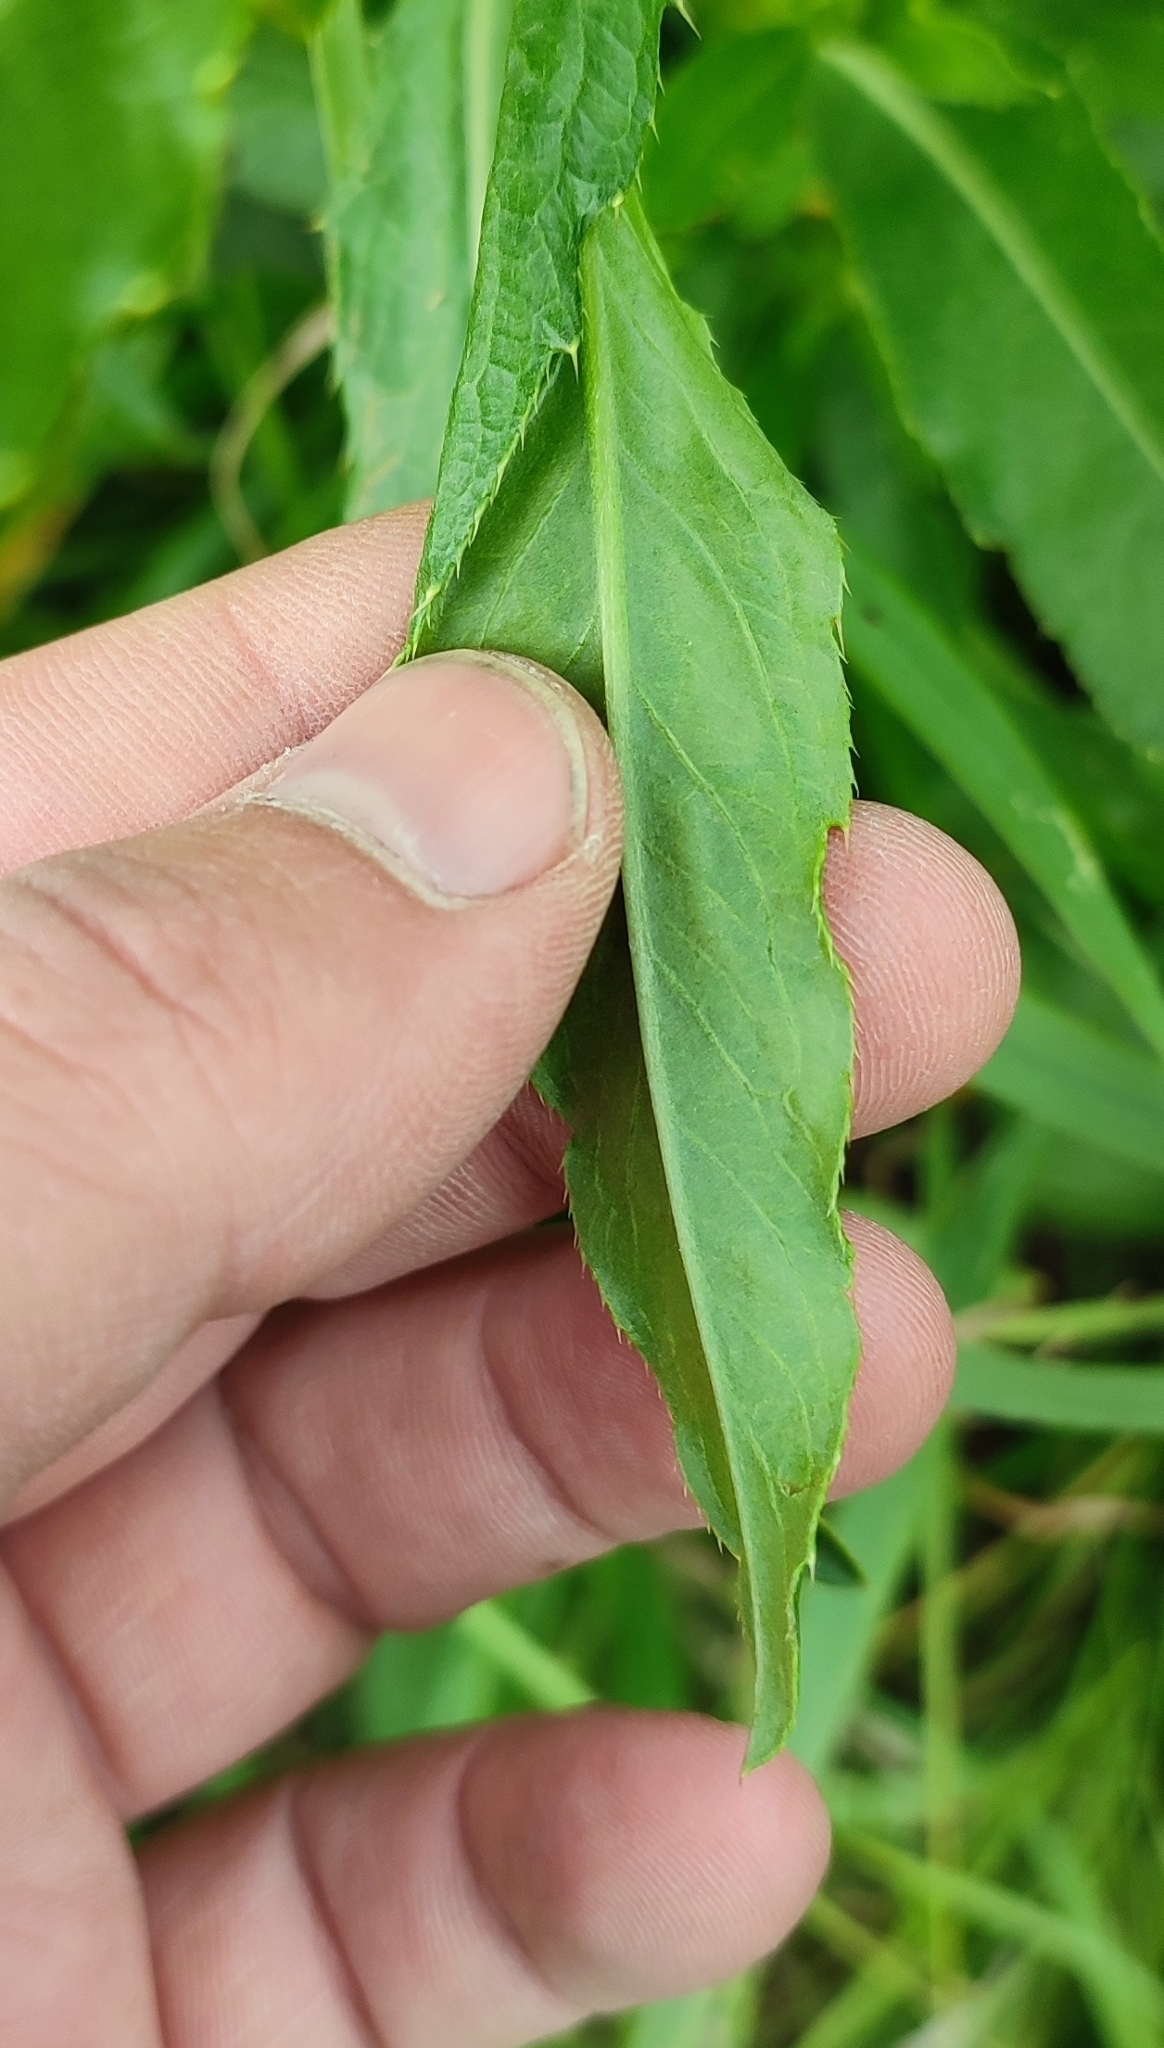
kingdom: Plantae
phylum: Tracheophyta
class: Magnoliopsida
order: Asterales
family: Asteraceae
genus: Cirsium
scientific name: Cirsium arvense
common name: Creeping thistle
